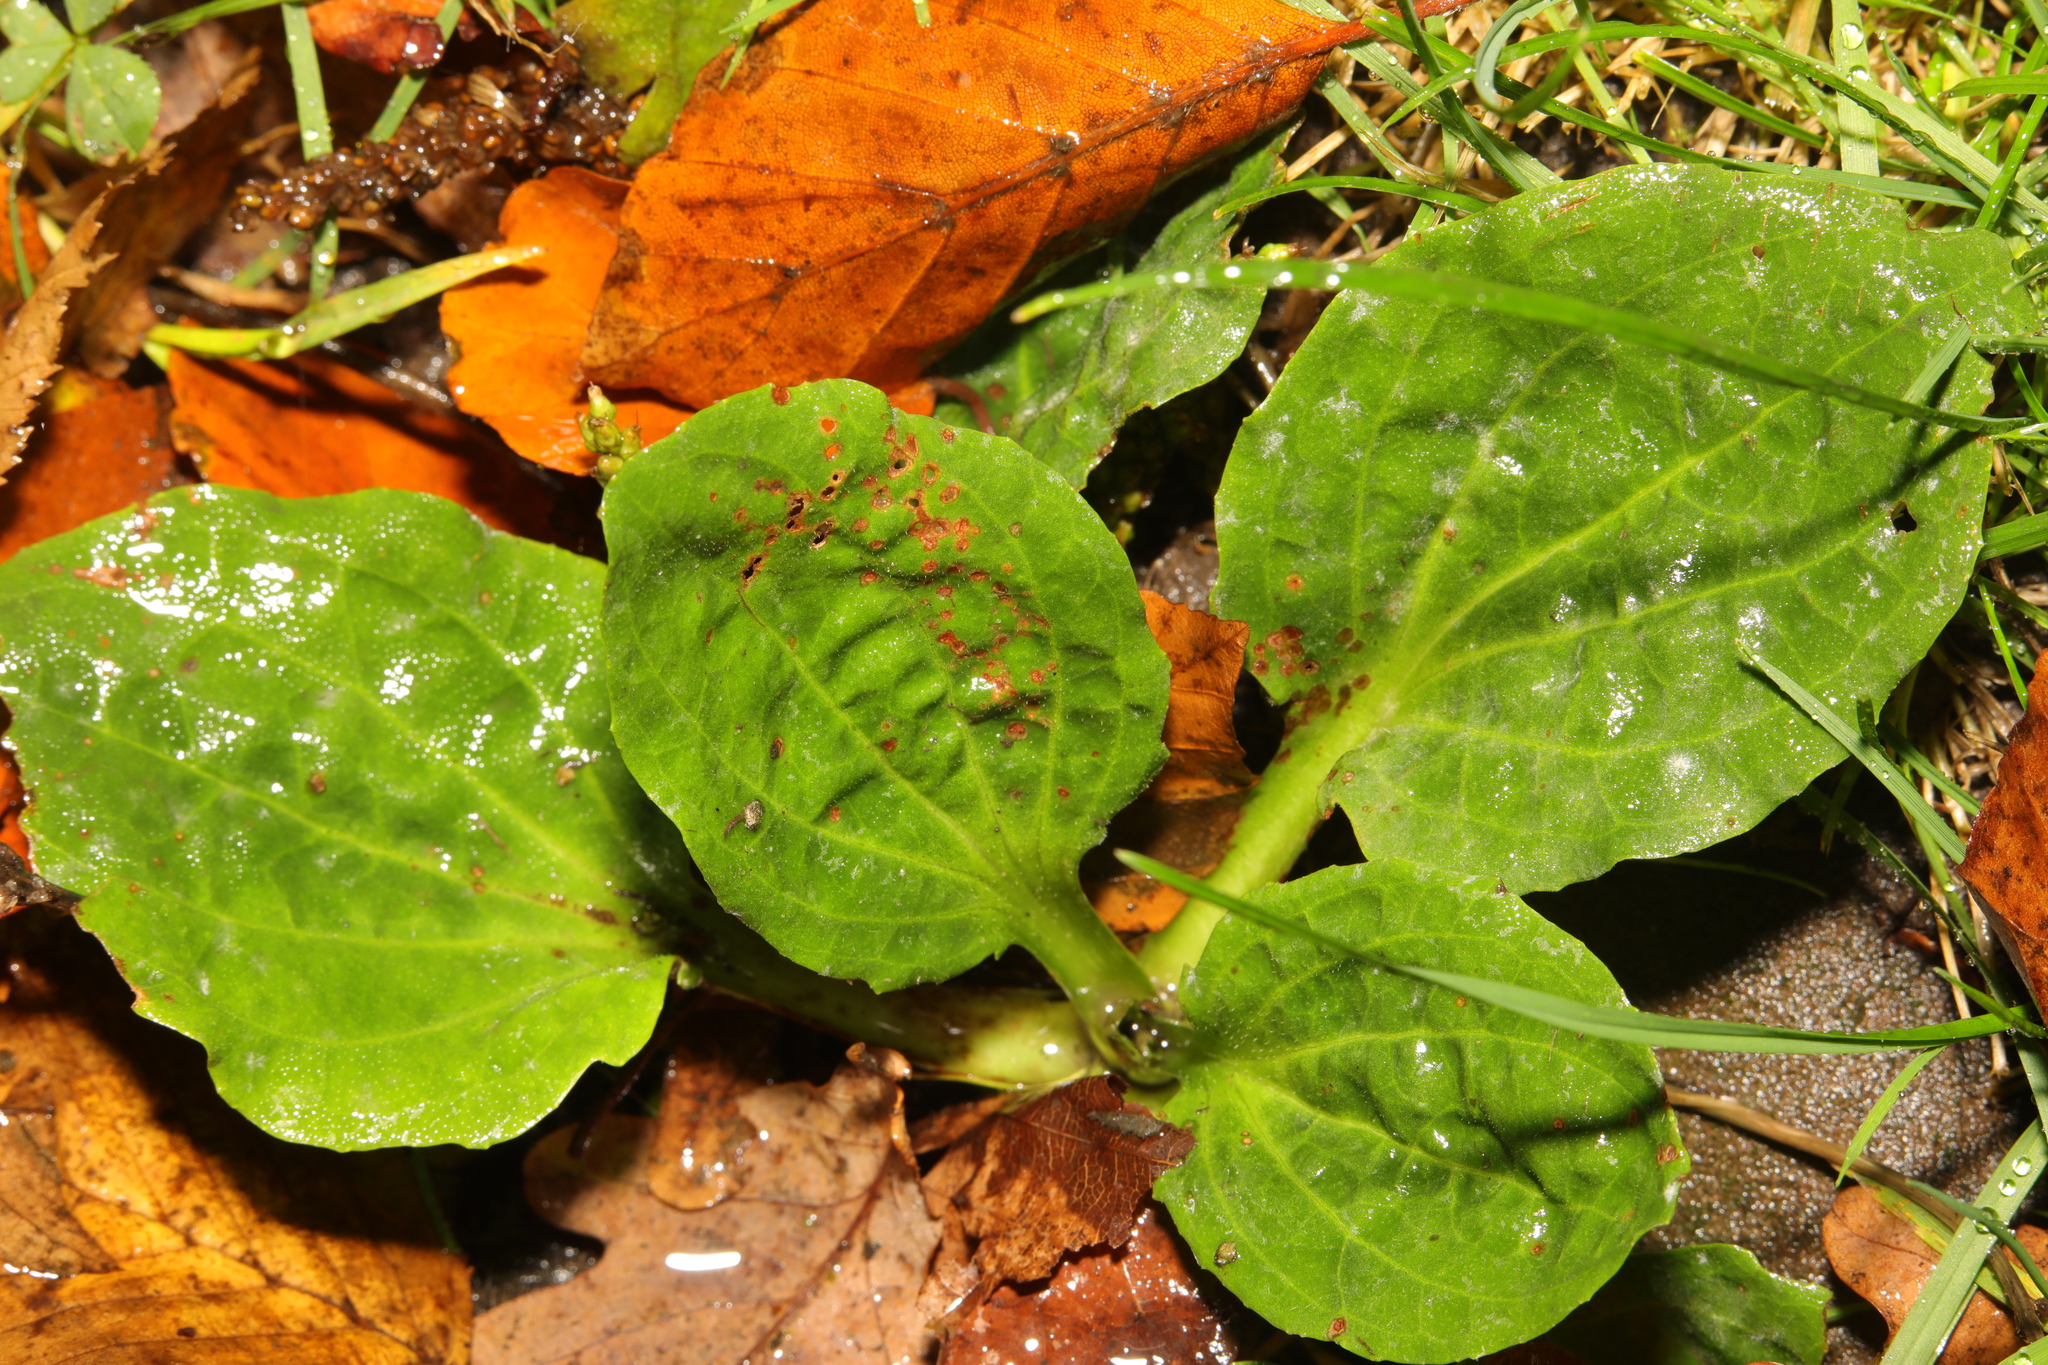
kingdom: Plantae
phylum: Tracheophyta
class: Magnoliopsida
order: Lamiales
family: Plantaginaceae
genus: Plantago
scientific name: Plantago major
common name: Common plantain
